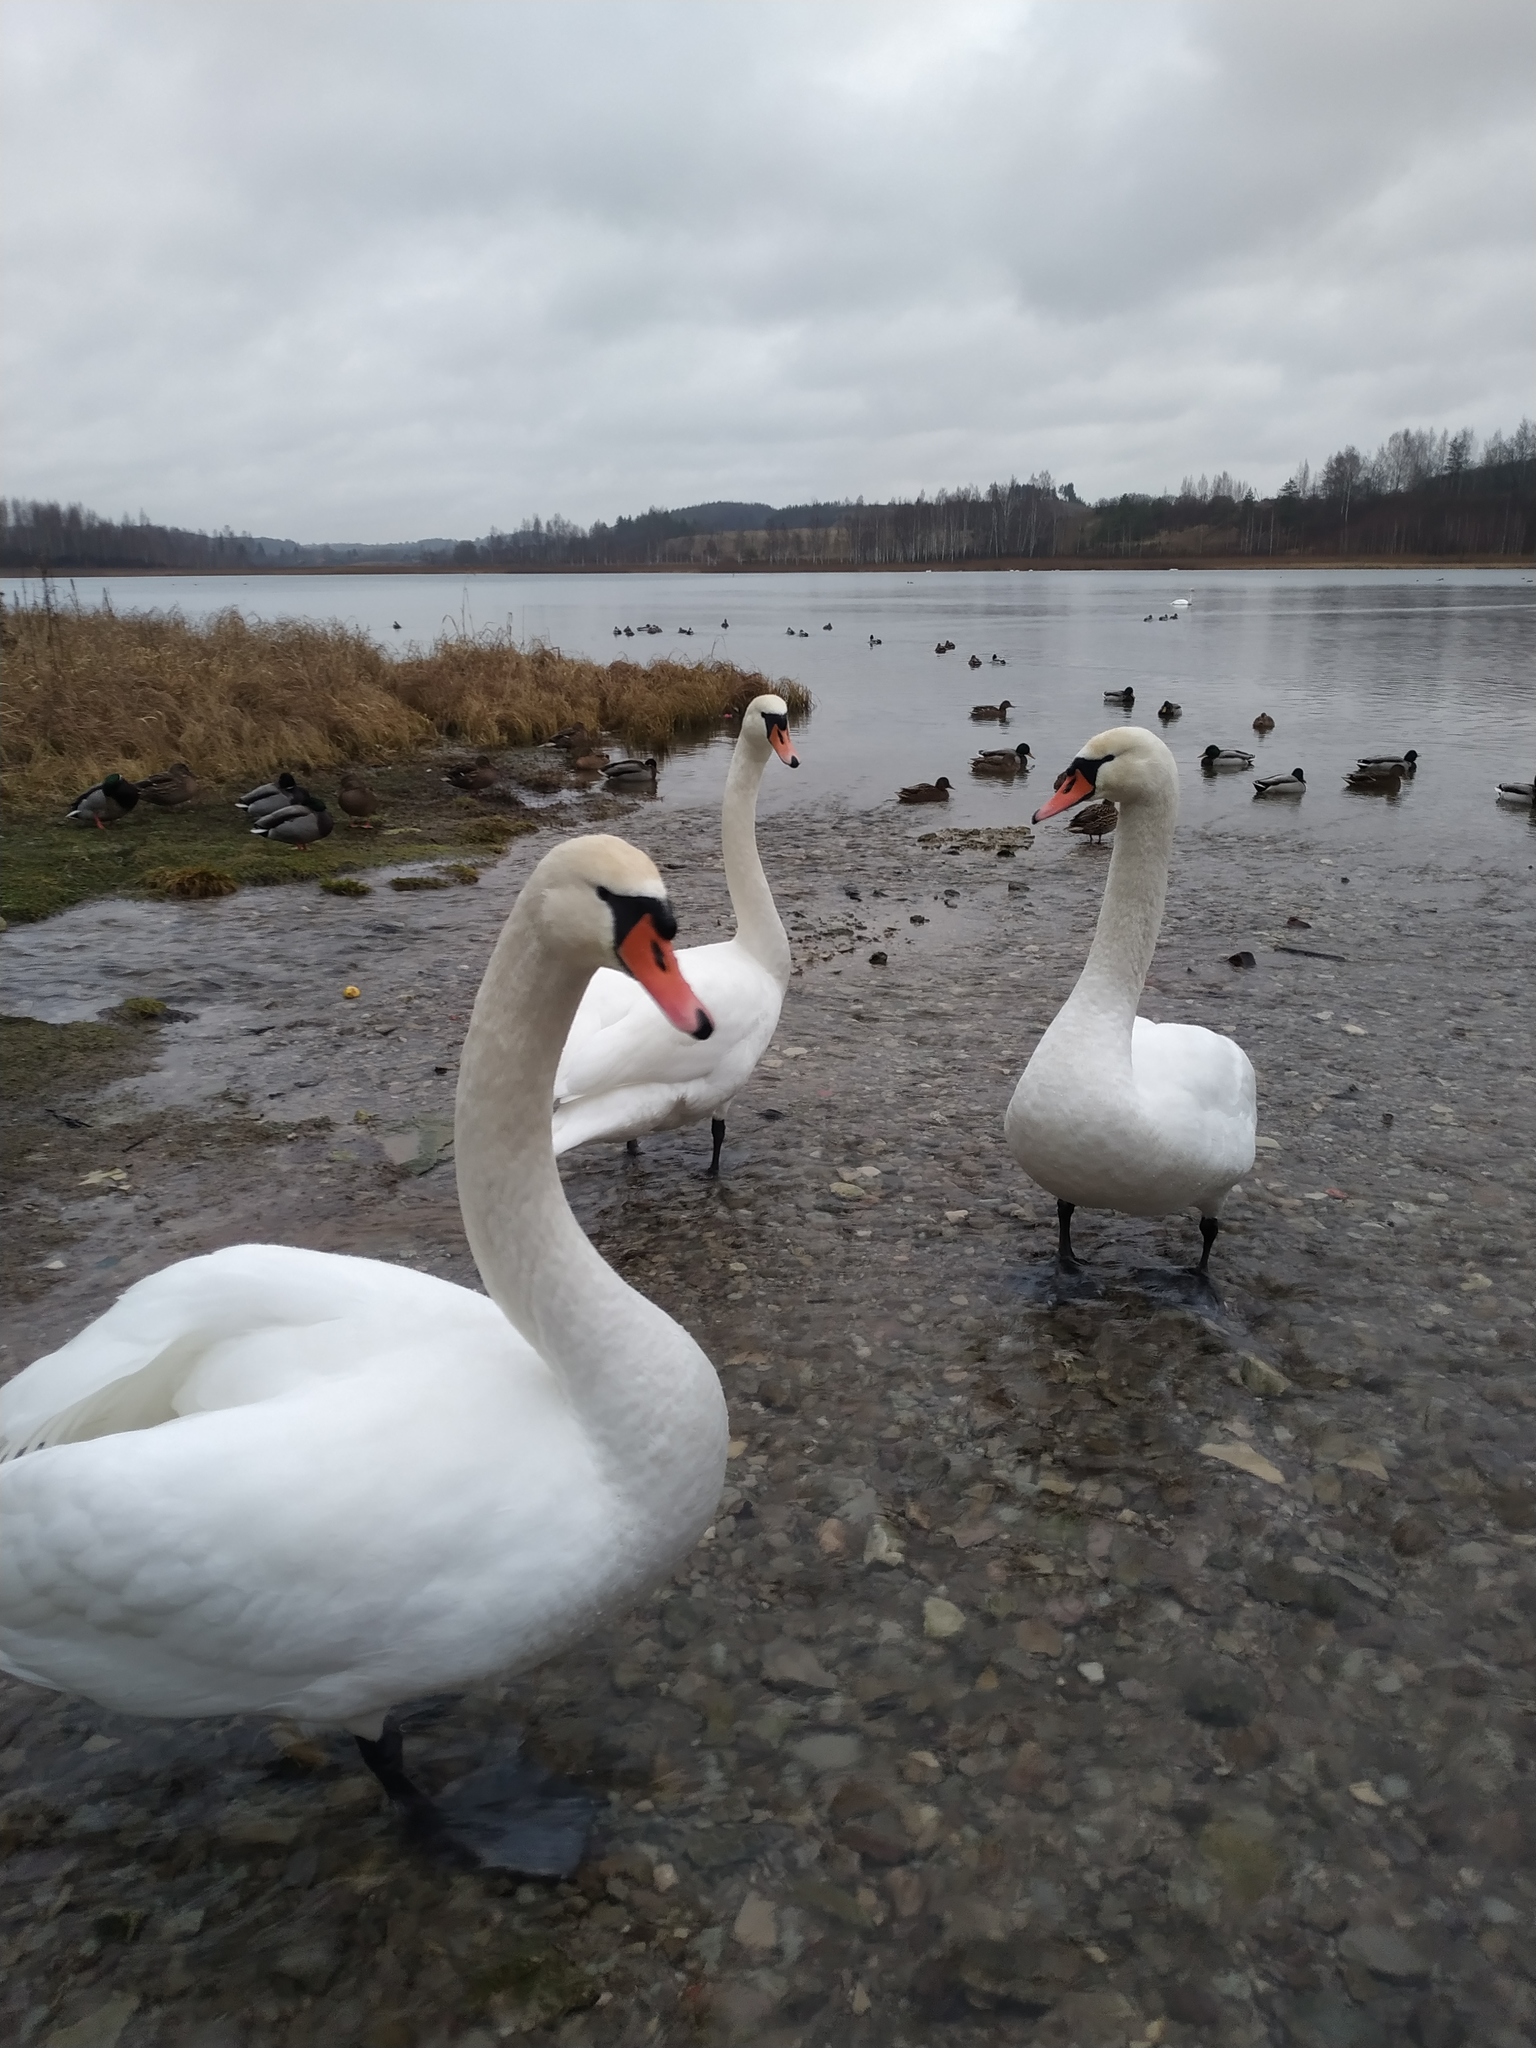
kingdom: Animalia
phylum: Chordata
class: Aves
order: Anseriformes
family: Anatidae
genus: Cygnus
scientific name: Cygnus olor
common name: Mute swan
